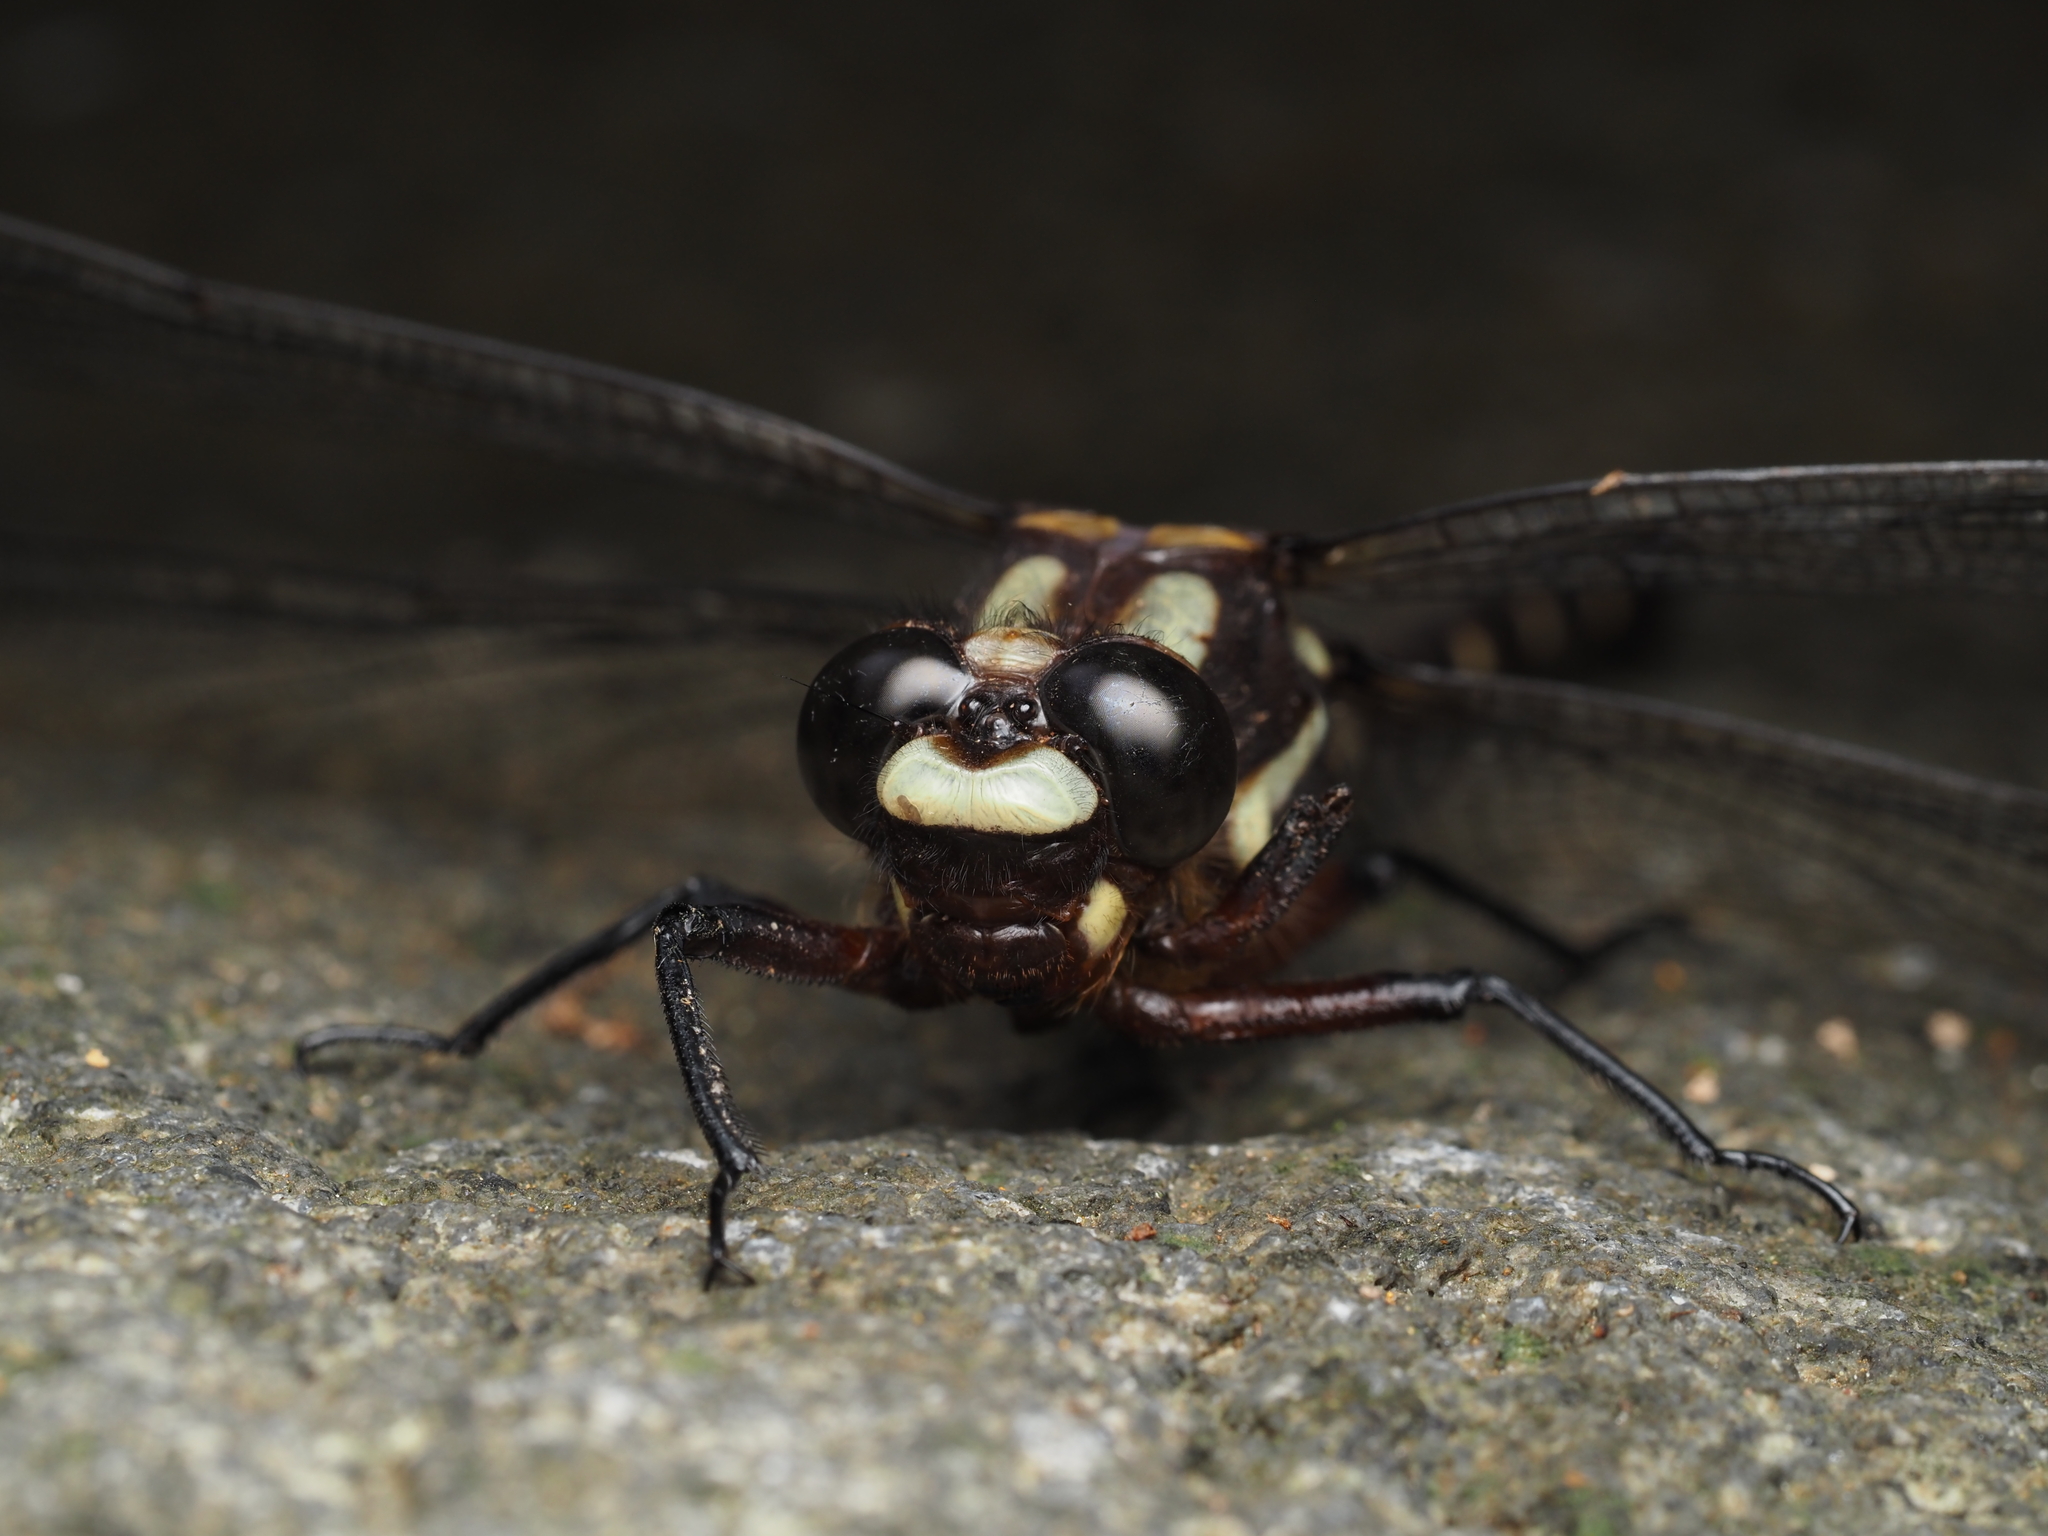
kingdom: Animalia
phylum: Arthropoda
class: Insecta
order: Odonata
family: Petaluridae
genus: Uropetala
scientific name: Uropetala carovei
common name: Bush giant dragonfly
